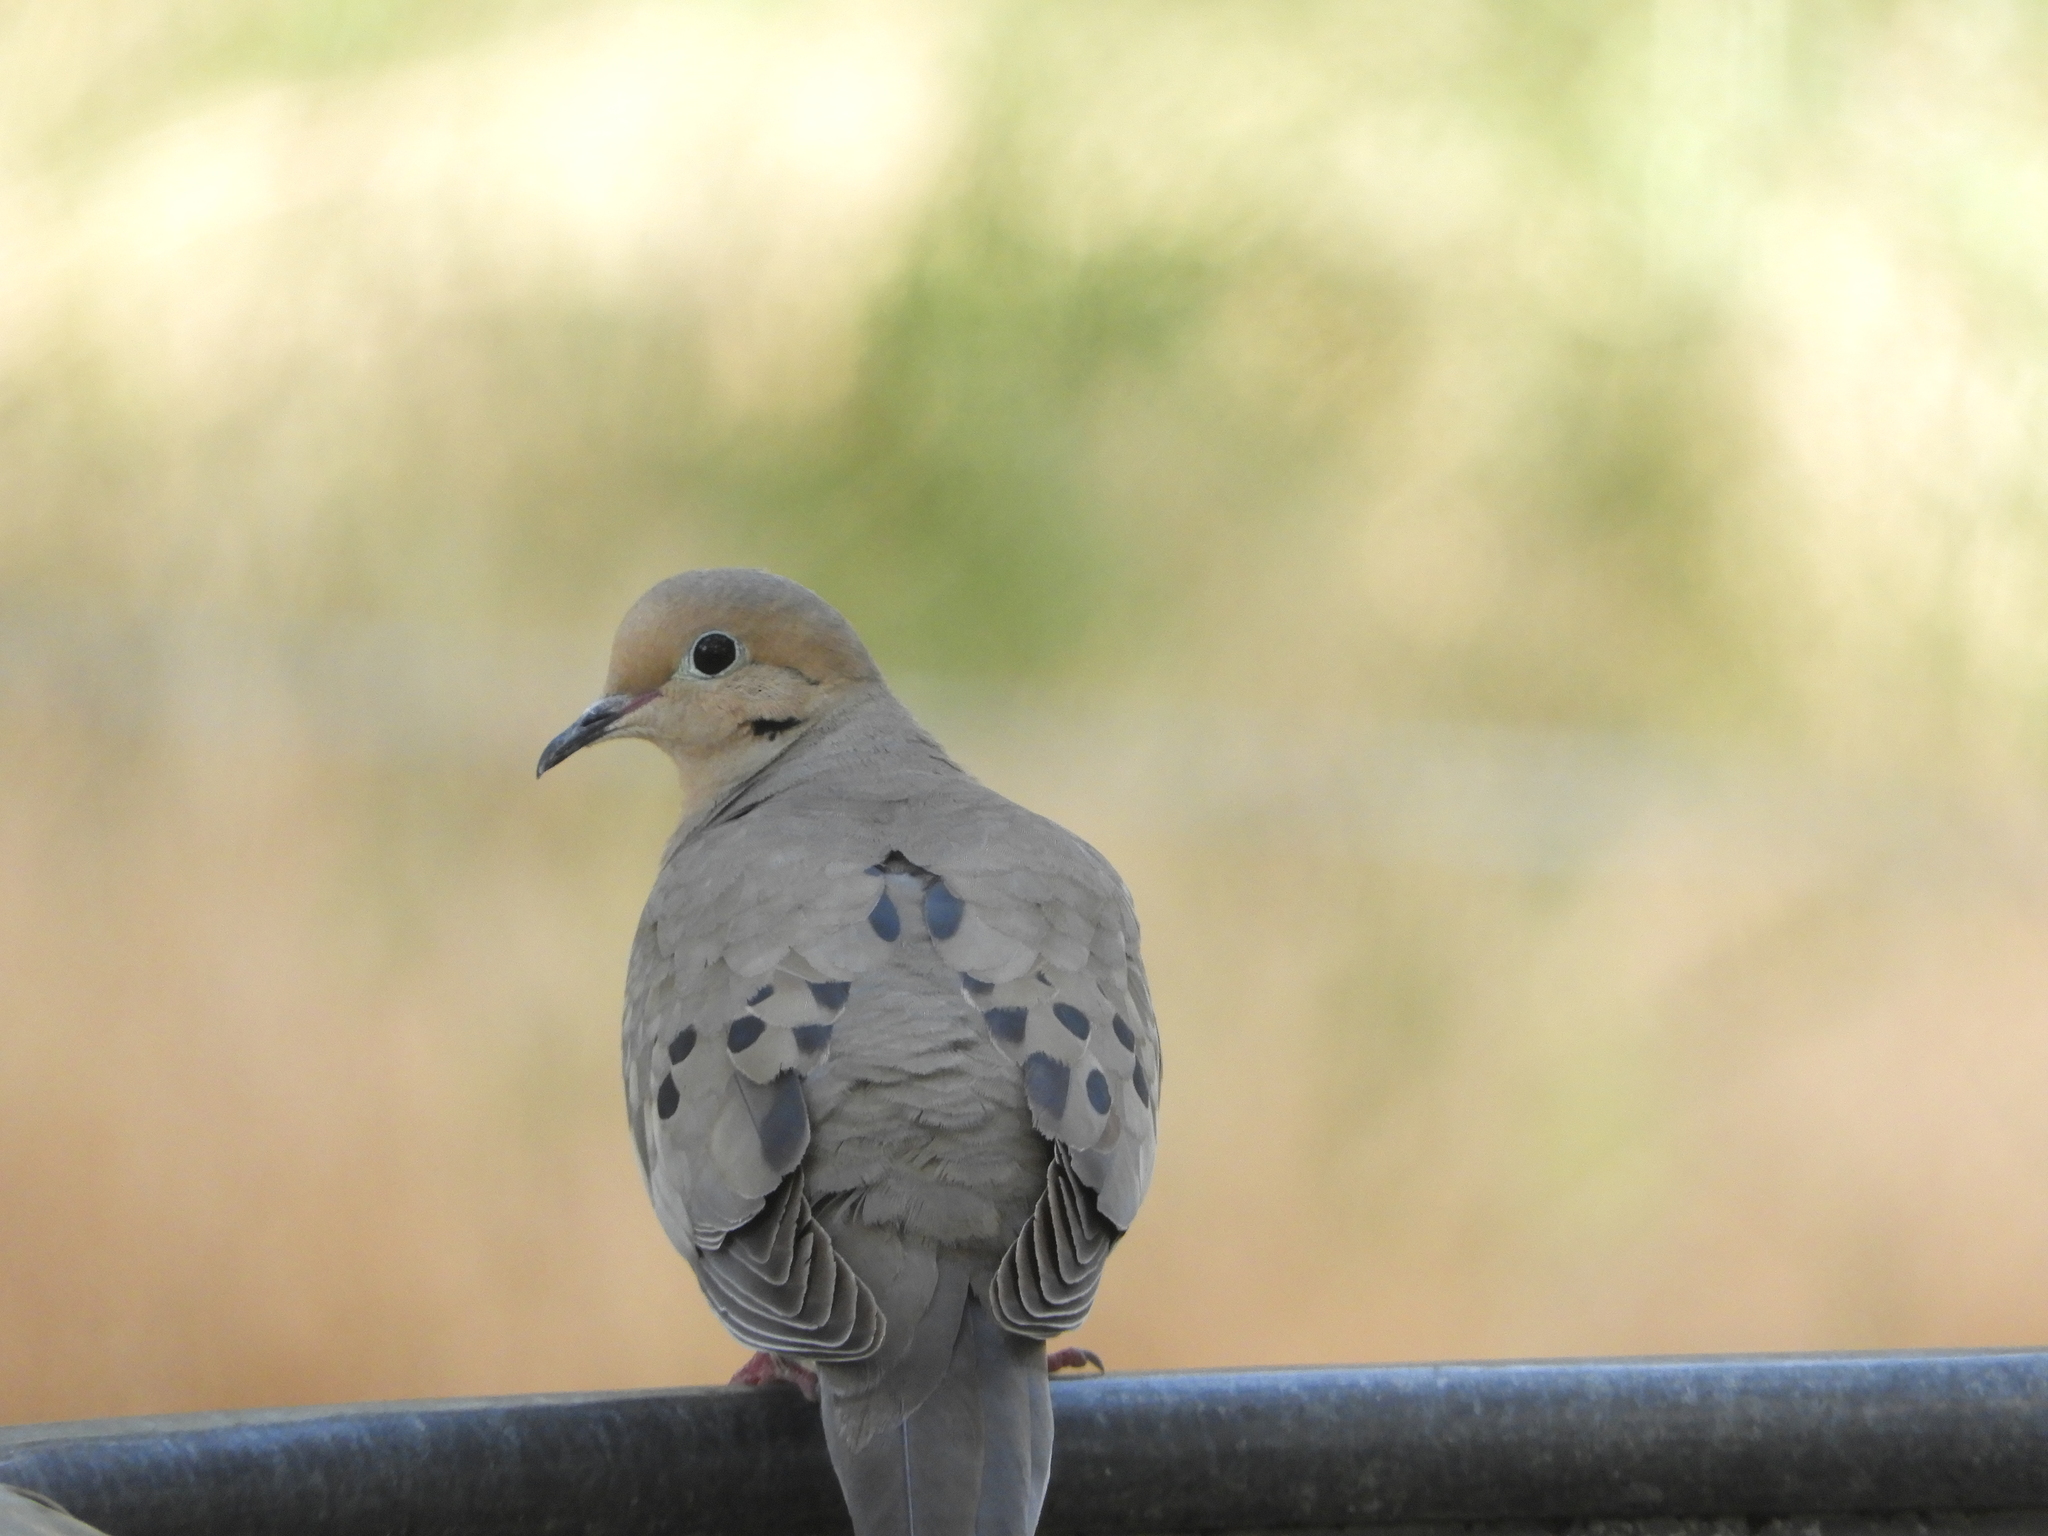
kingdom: Animalia
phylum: Chordata
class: Aves
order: Columbiformes
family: Columbidae
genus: Zenaida
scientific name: Zenaida macroura
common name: Mourning dove
